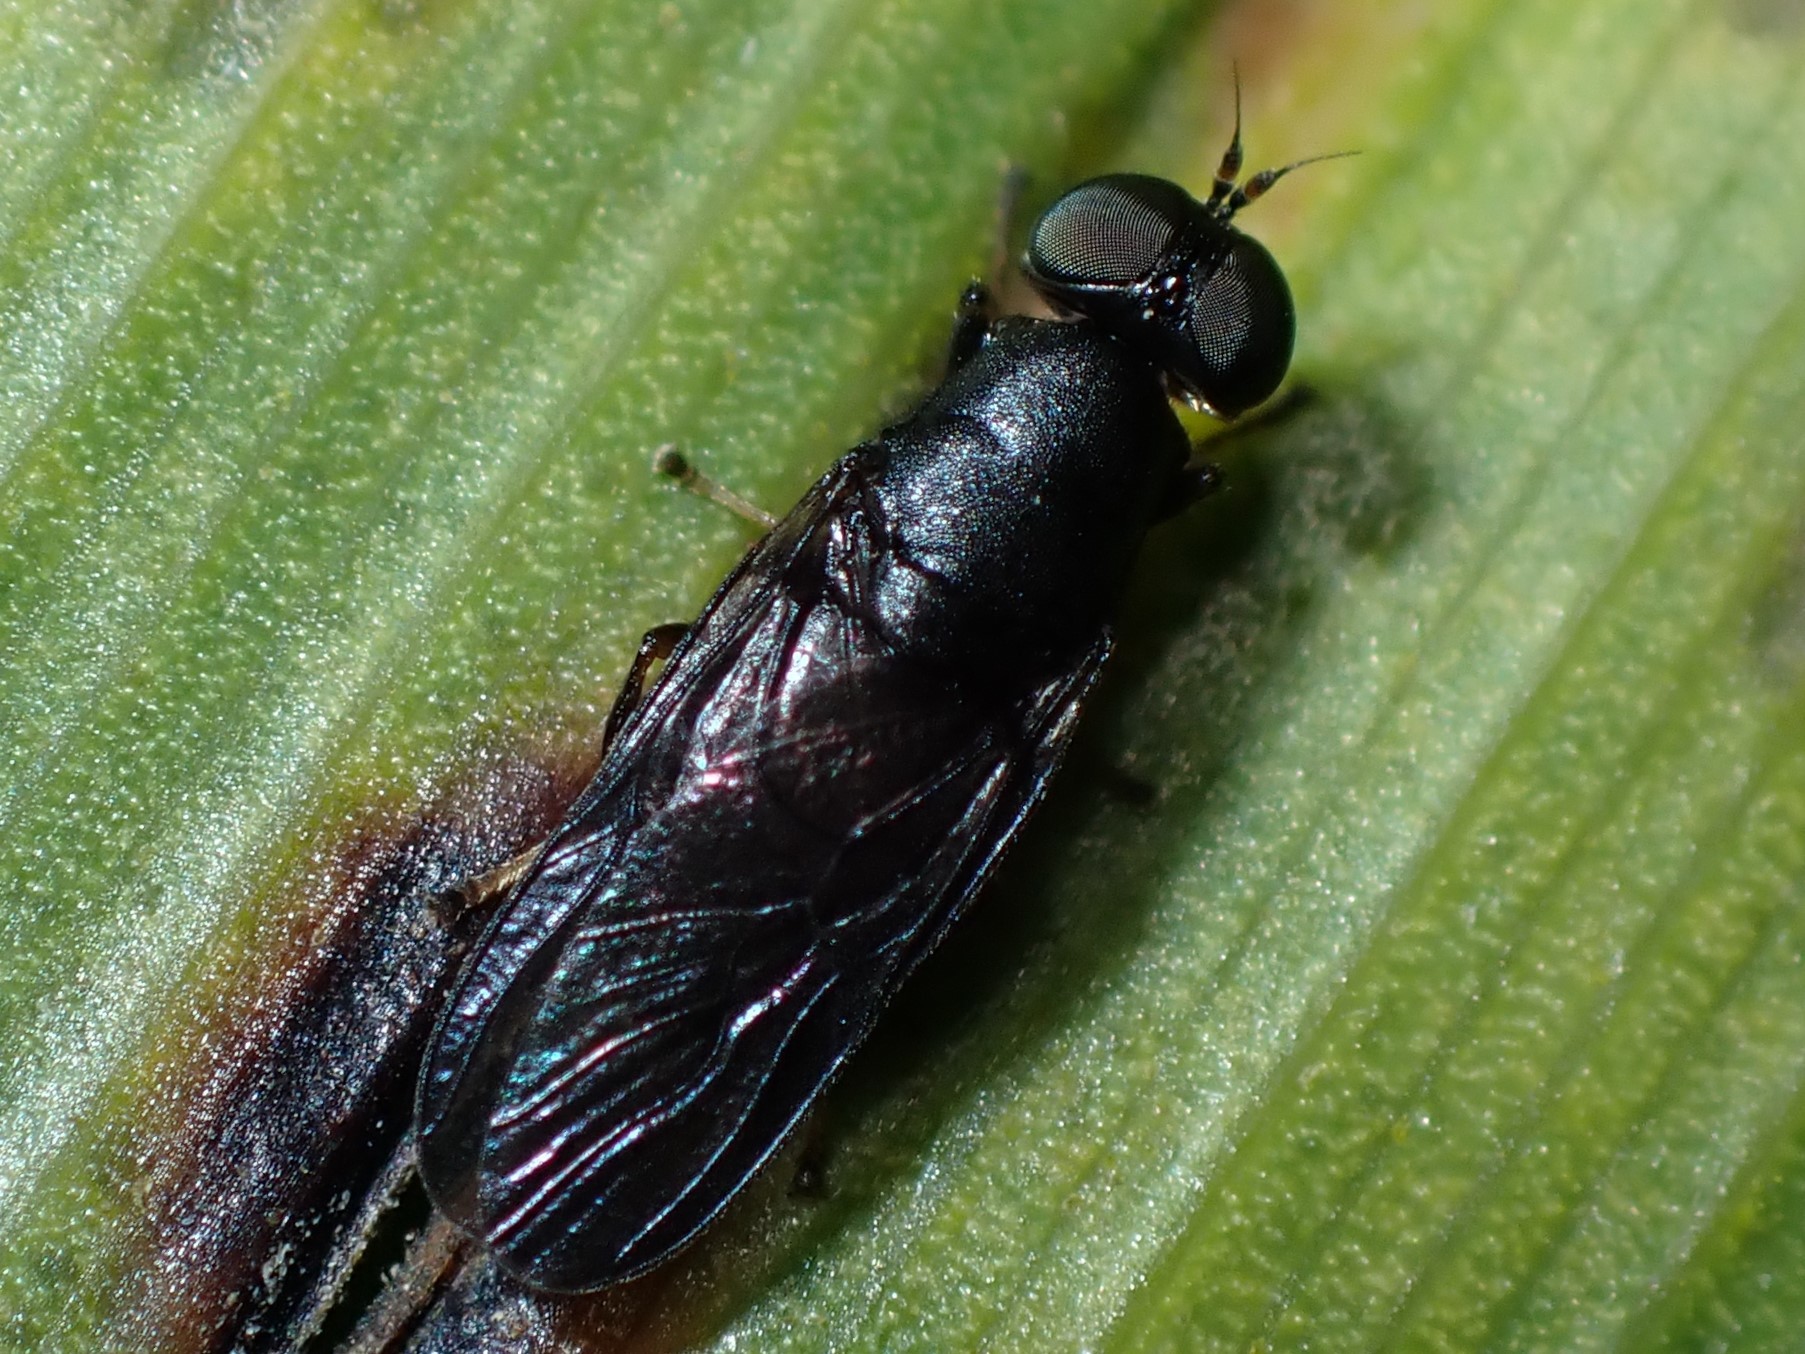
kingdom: Animalia
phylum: Arthropoda
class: Insecta
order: Diptera
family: Stratiomyidae
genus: Dysbiota
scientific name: Dysbiota parvula
